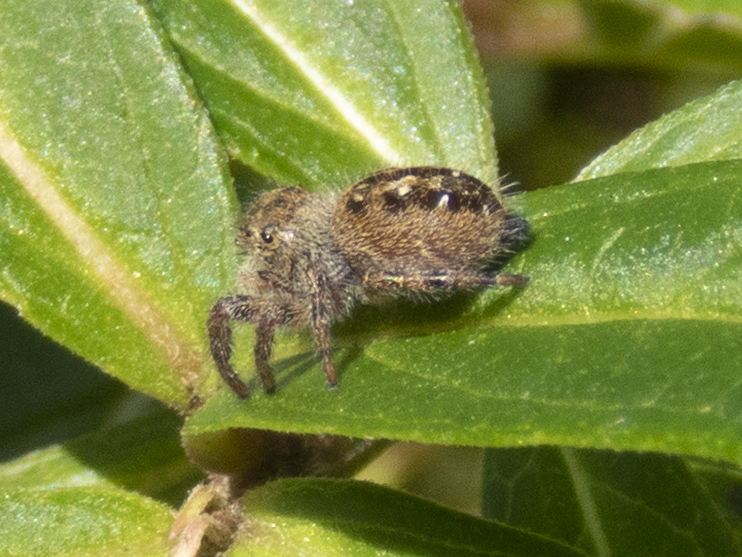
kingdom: Animalia
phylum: Arthropoda
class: Arachnida
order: Araneae
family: Salticidae
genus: Phidippus
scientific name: Phidippus princeps
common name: Grayish jumping spider
